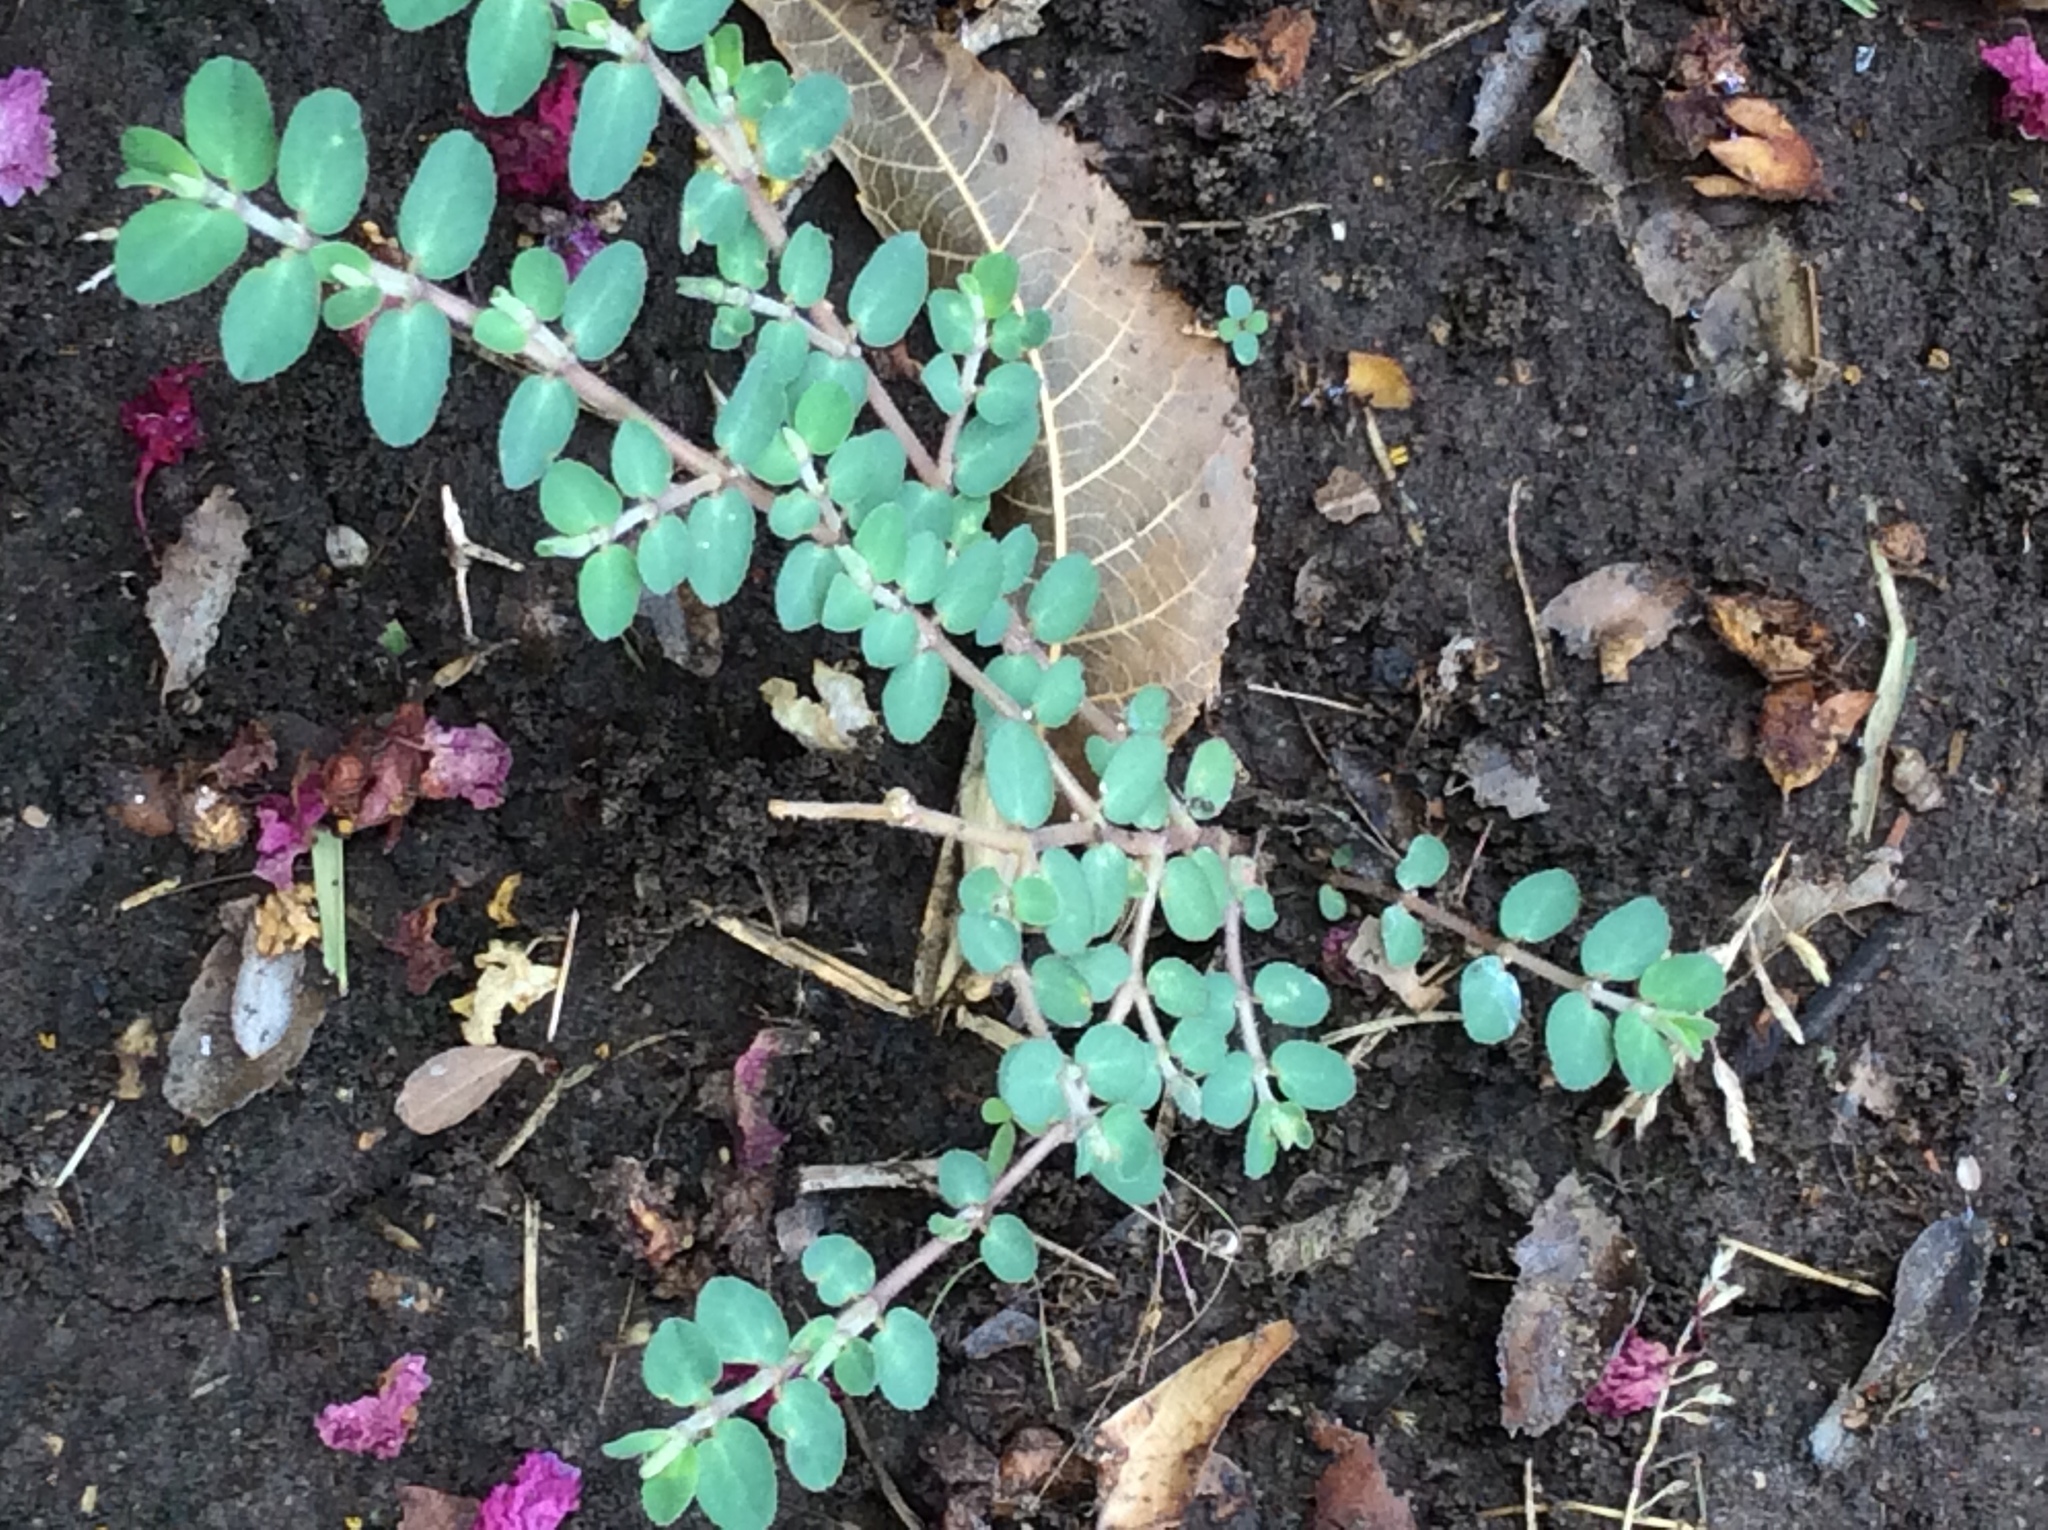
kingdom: Plantae
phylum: Tracheophyta
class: Magnoliopsida
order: Malpighiales
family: Euphorbiaceae
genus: Euphorbia
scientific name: Euphorbia prostrata
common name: Prostrate sandmat
